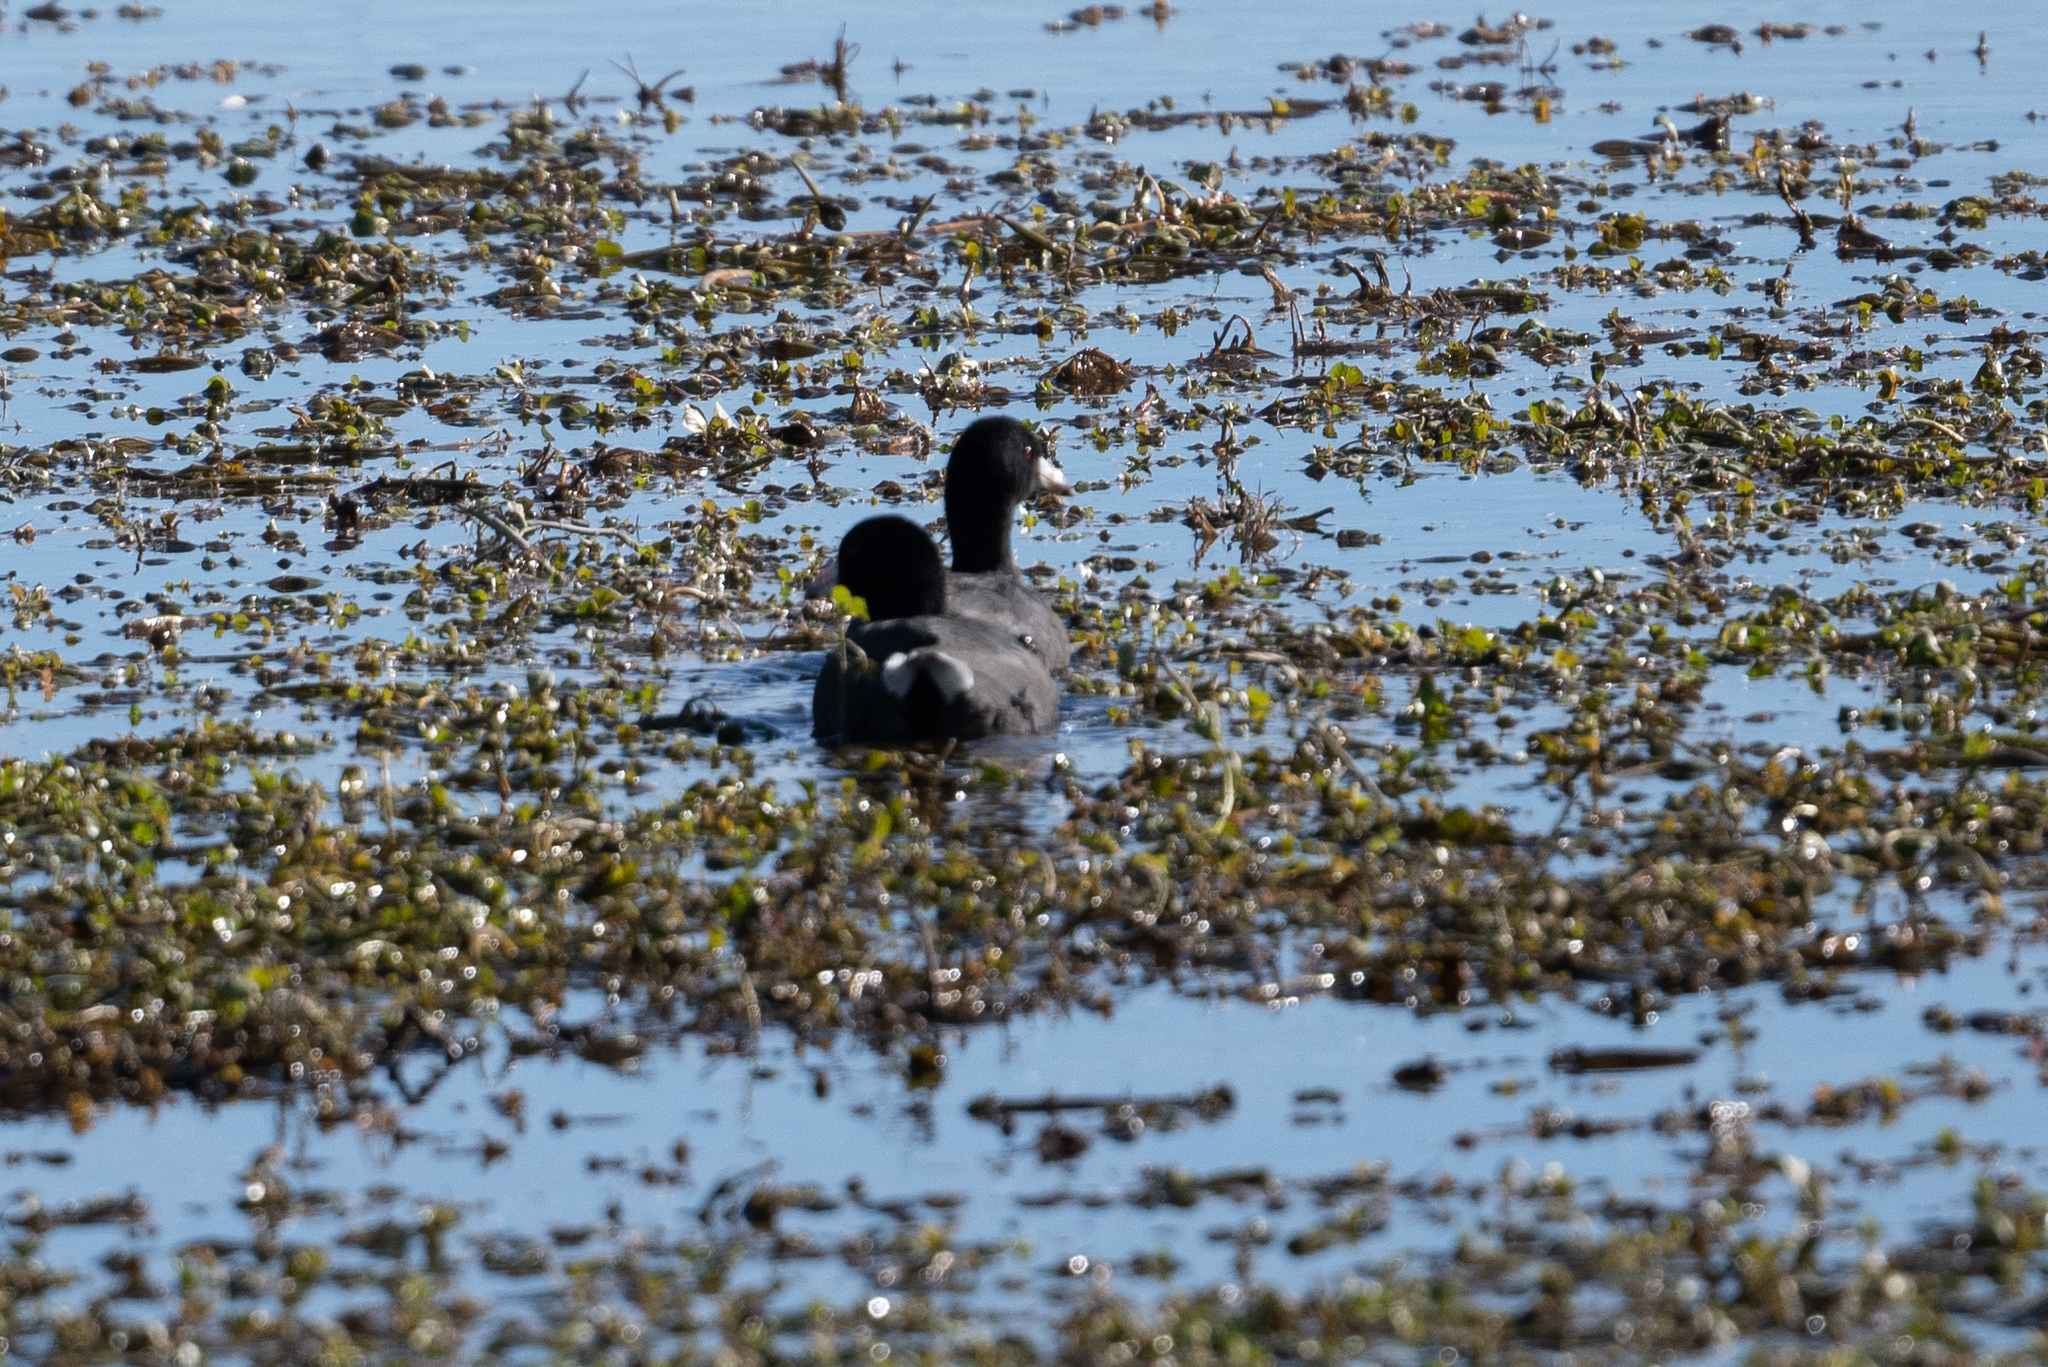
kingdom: Animalia
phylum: Chordata
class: Aves
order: Gruiformes
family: Rallidae
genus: Fulica
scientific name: Fulica americana
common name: American coot
